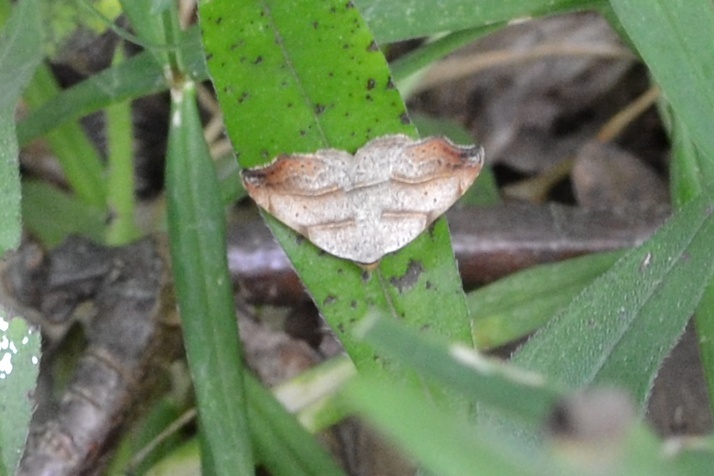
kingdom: Animalia
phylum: Arthropoda
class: Insecta
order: Lepidoptera
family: Erebidae
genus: Laspeyria
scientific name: Laspeyria flexula
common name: Beautiful hook-tip
